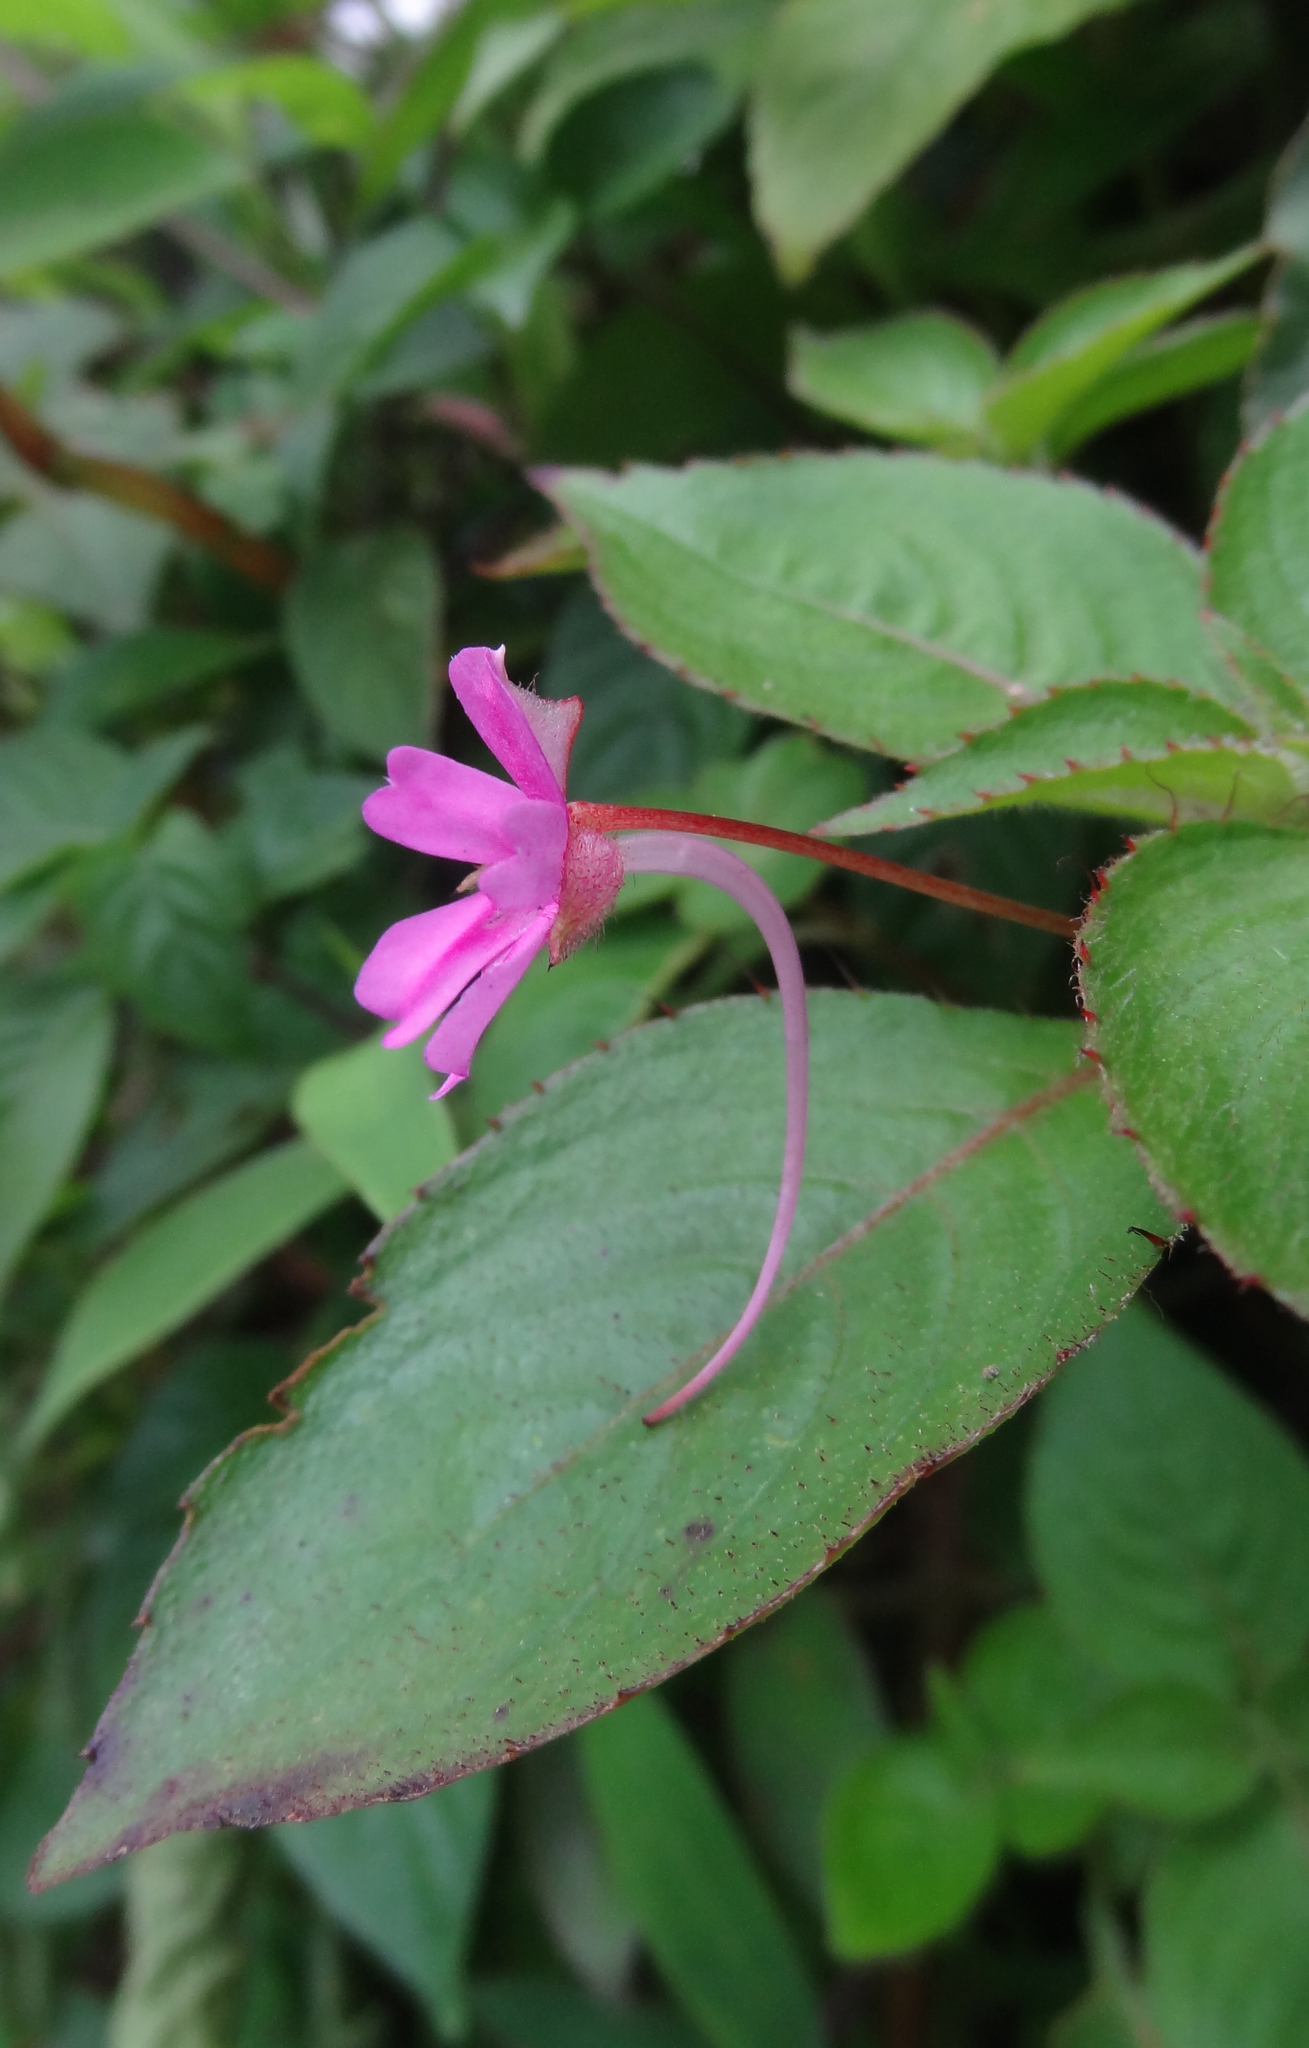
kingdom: Plantae
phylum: Tracheophyta
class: Magnoliopsida
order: Ericales
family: Balsaminaceae
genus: Impatiens
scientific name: Impatiens concinna
